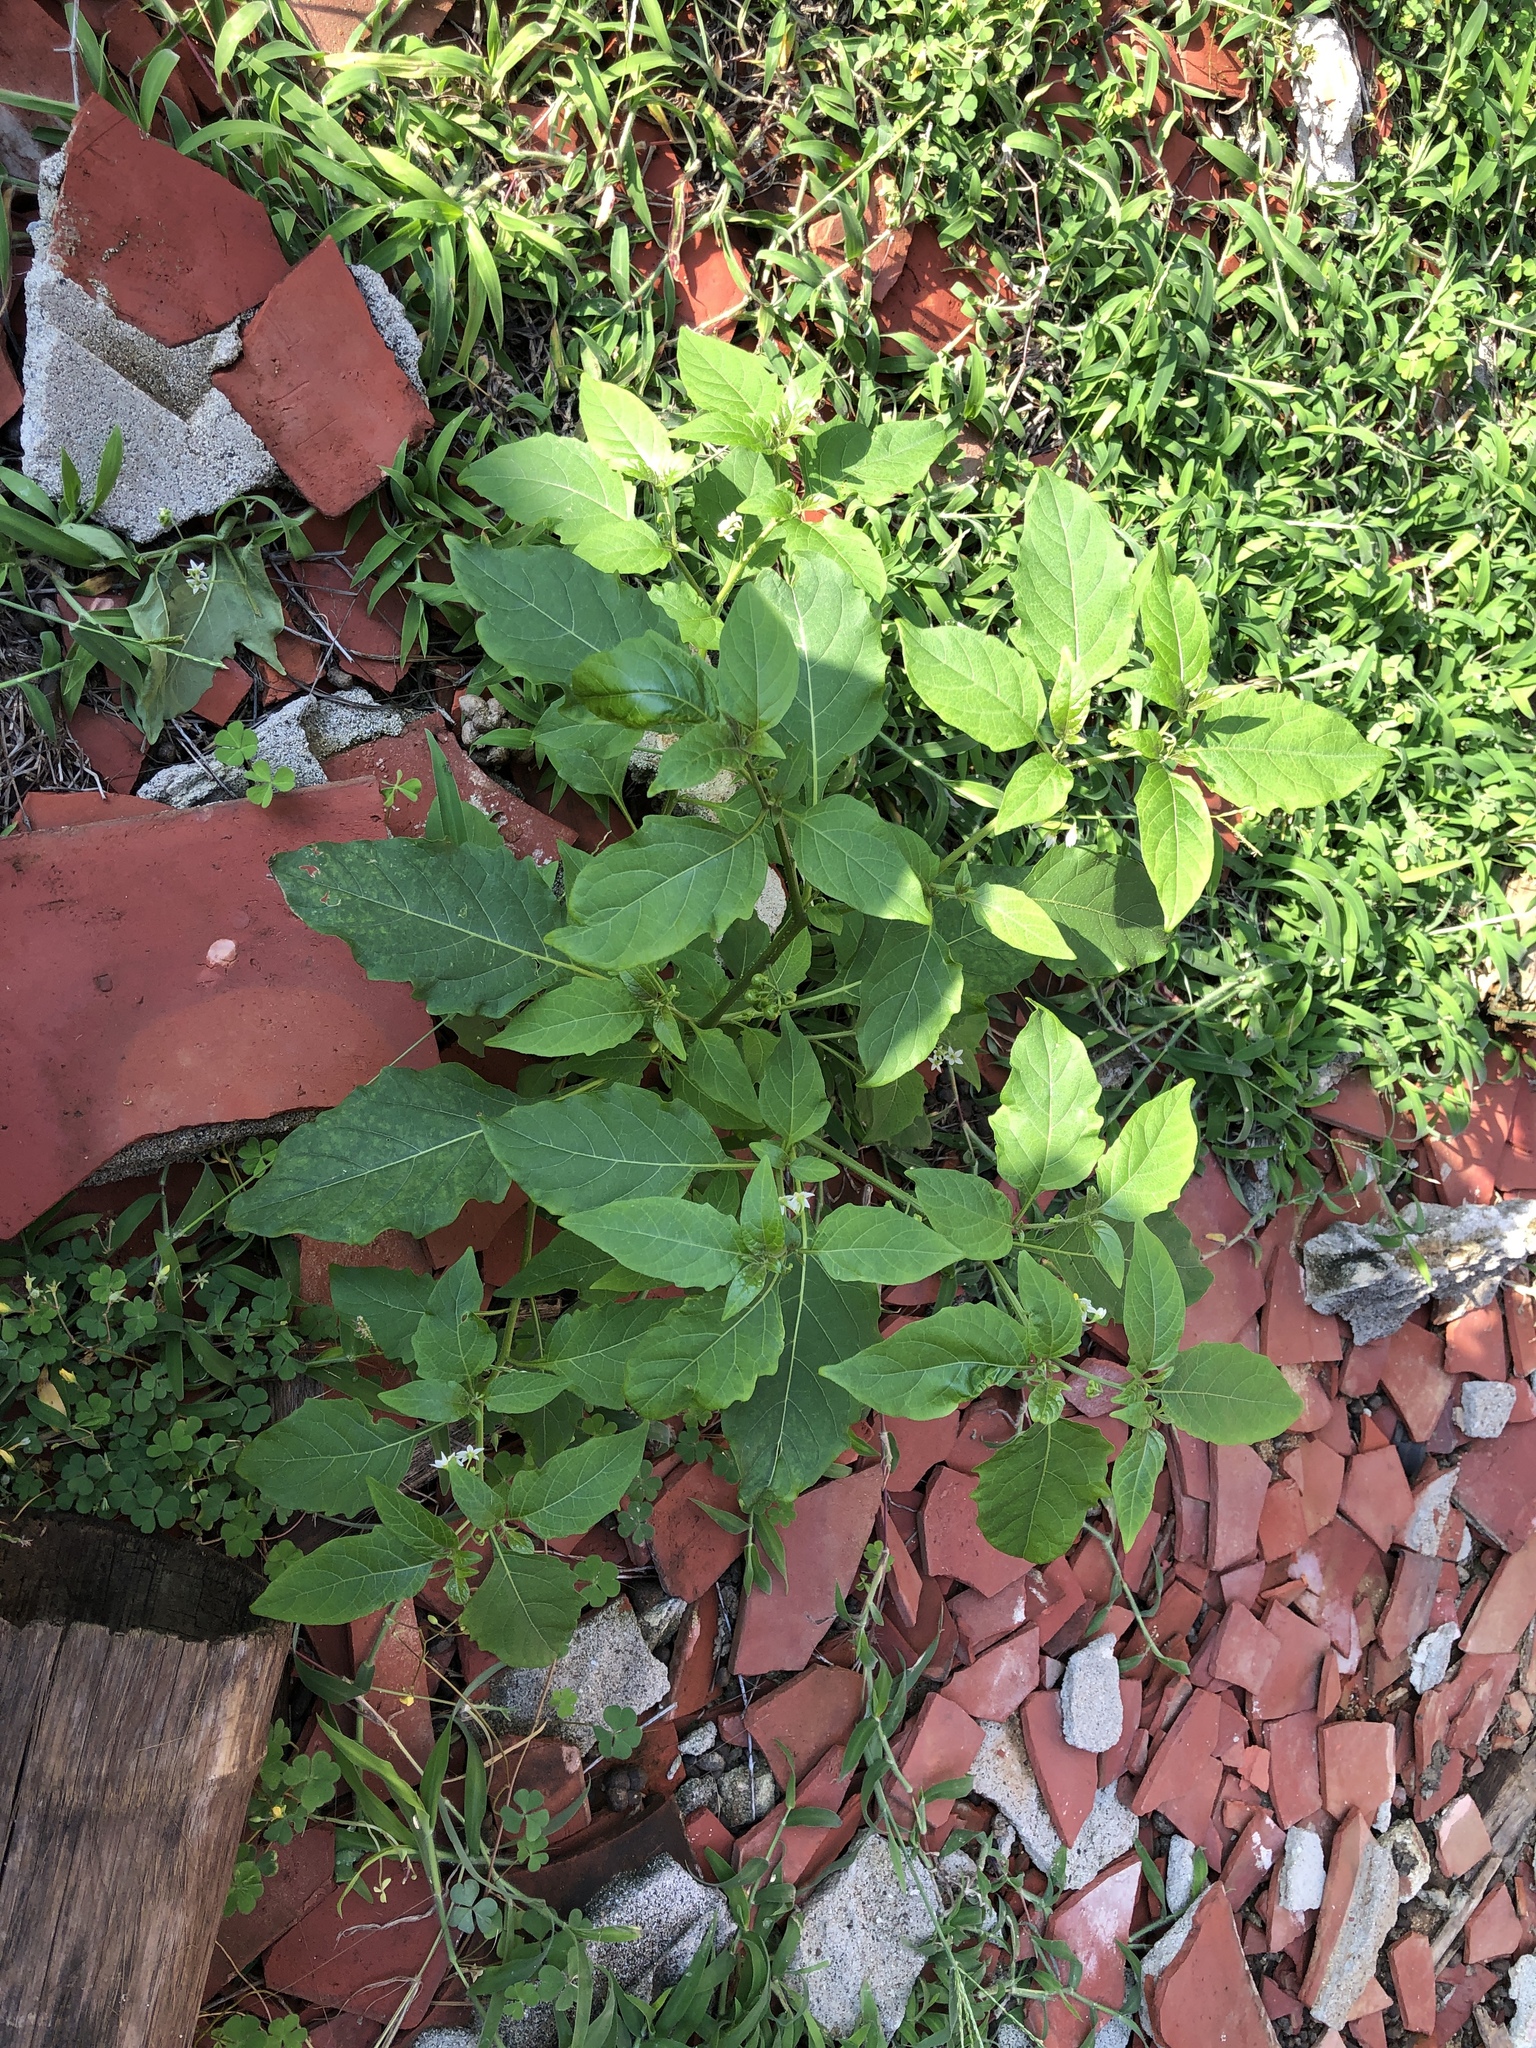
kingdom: Plantae
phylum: Tracheophyta
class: Magnoliopsida
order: Solanales
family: Solanaceae
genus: Solanum
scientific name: Solanum nigrum
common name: Black nightshade
